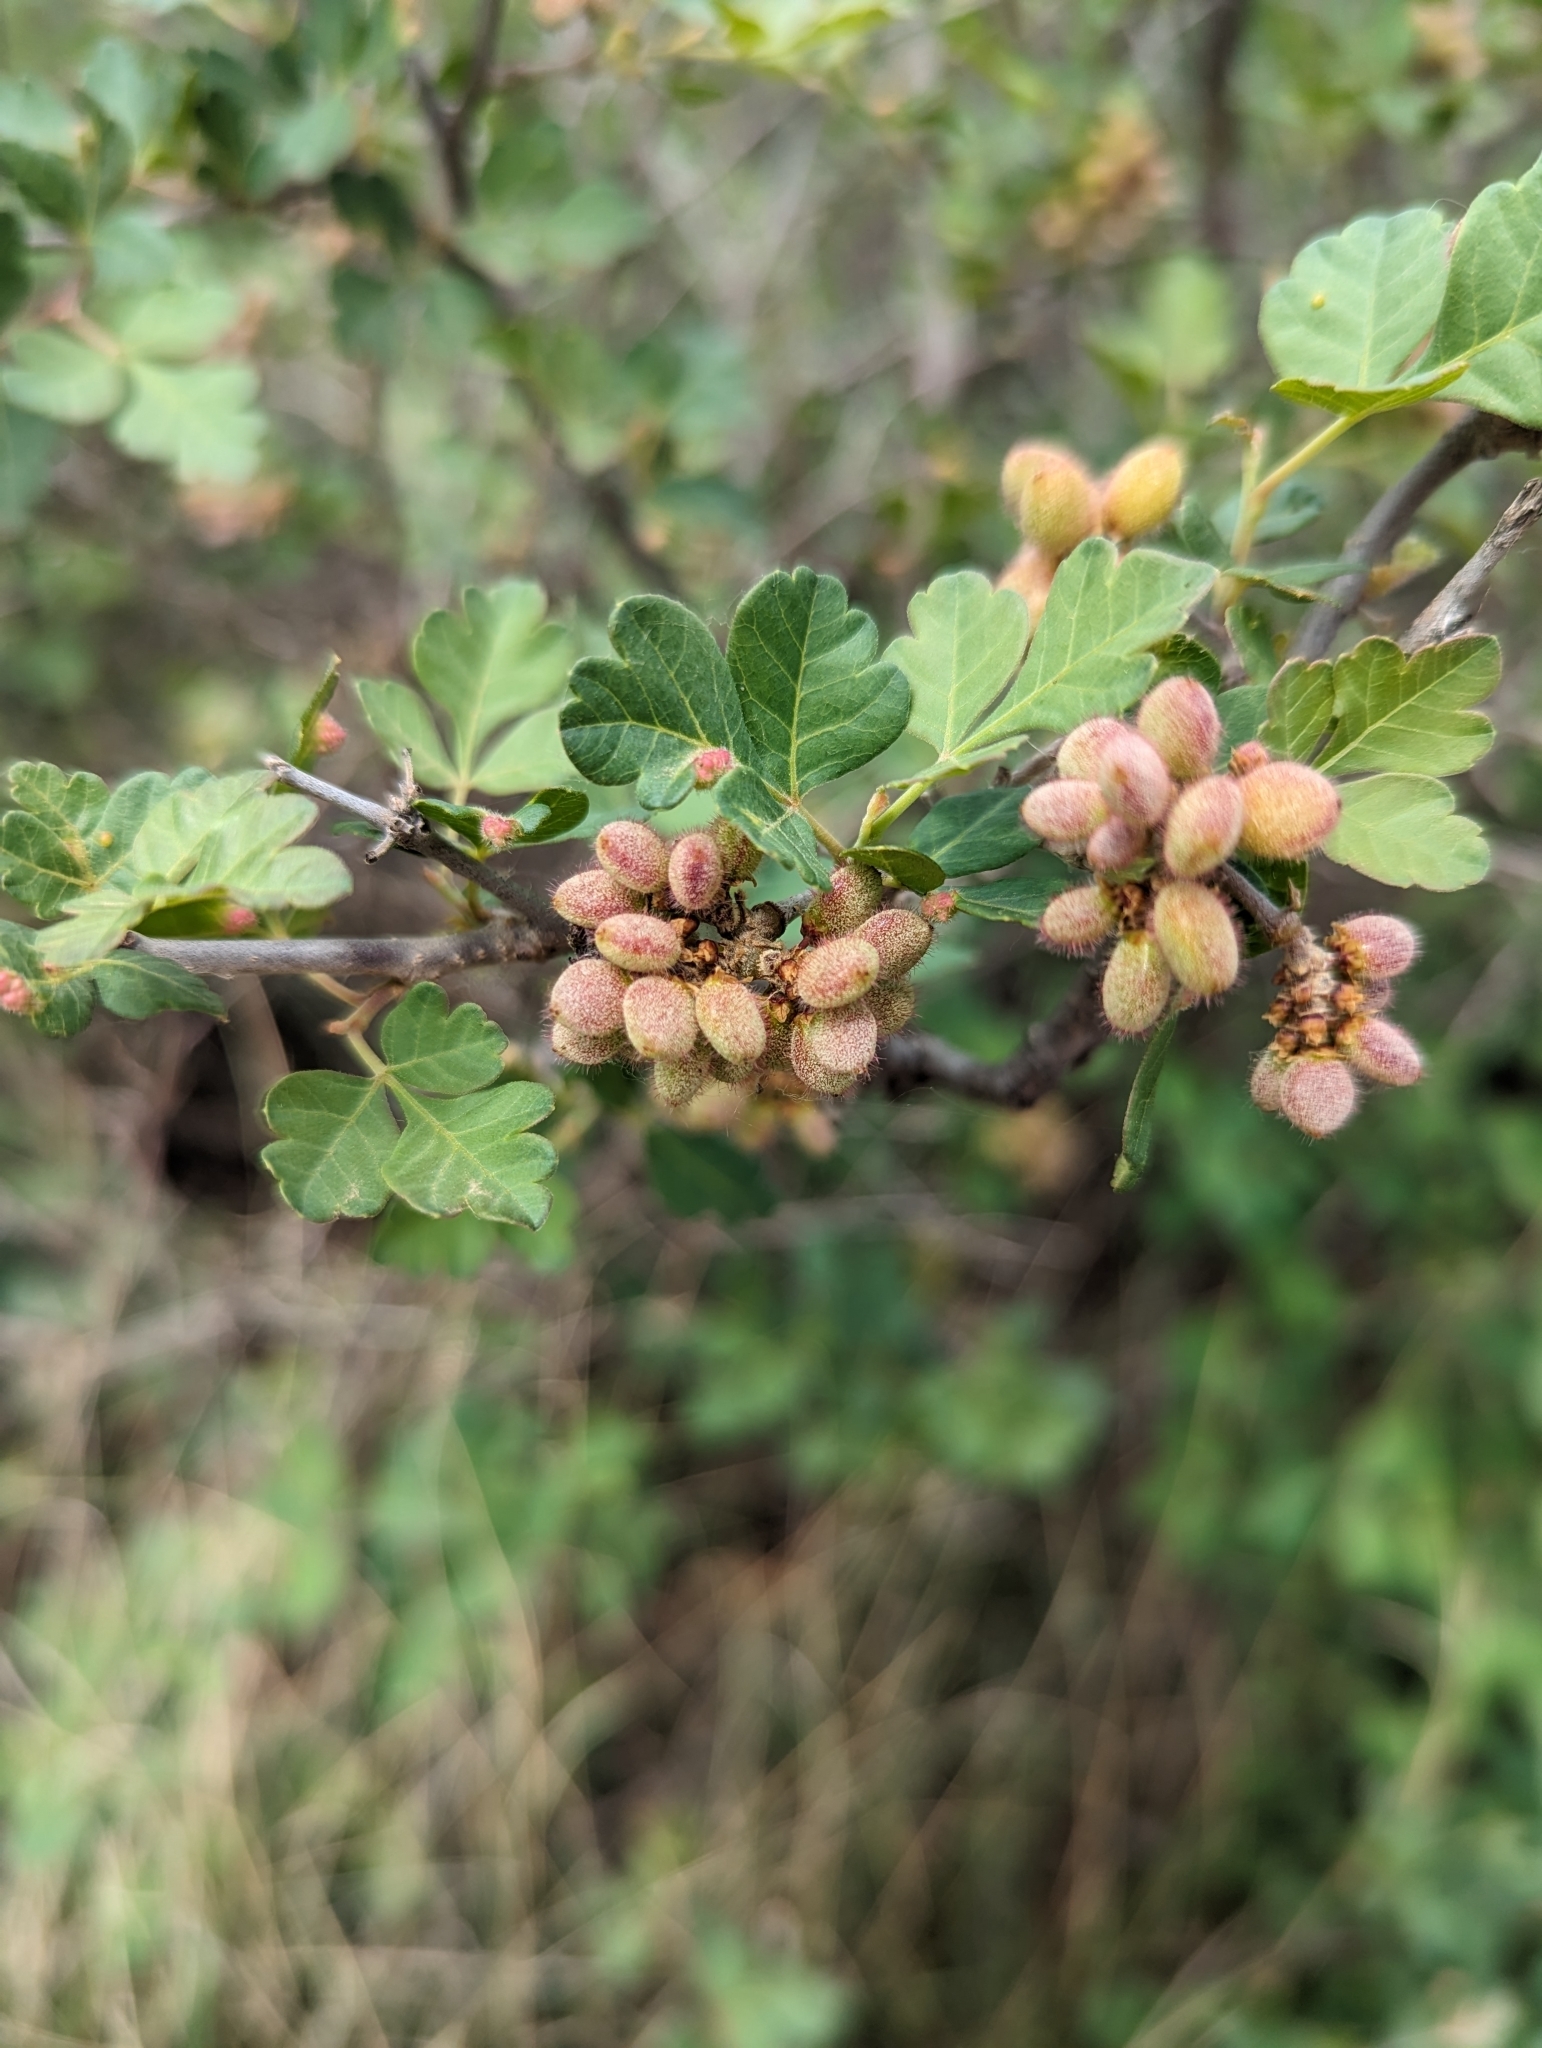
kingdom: Plantae
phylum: Tracheophyta
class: Magnoliopsida
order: Sapindales
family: Anacardiaceae
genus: Rhus
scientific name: Rhus aromatica
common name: Aromatic sumac
